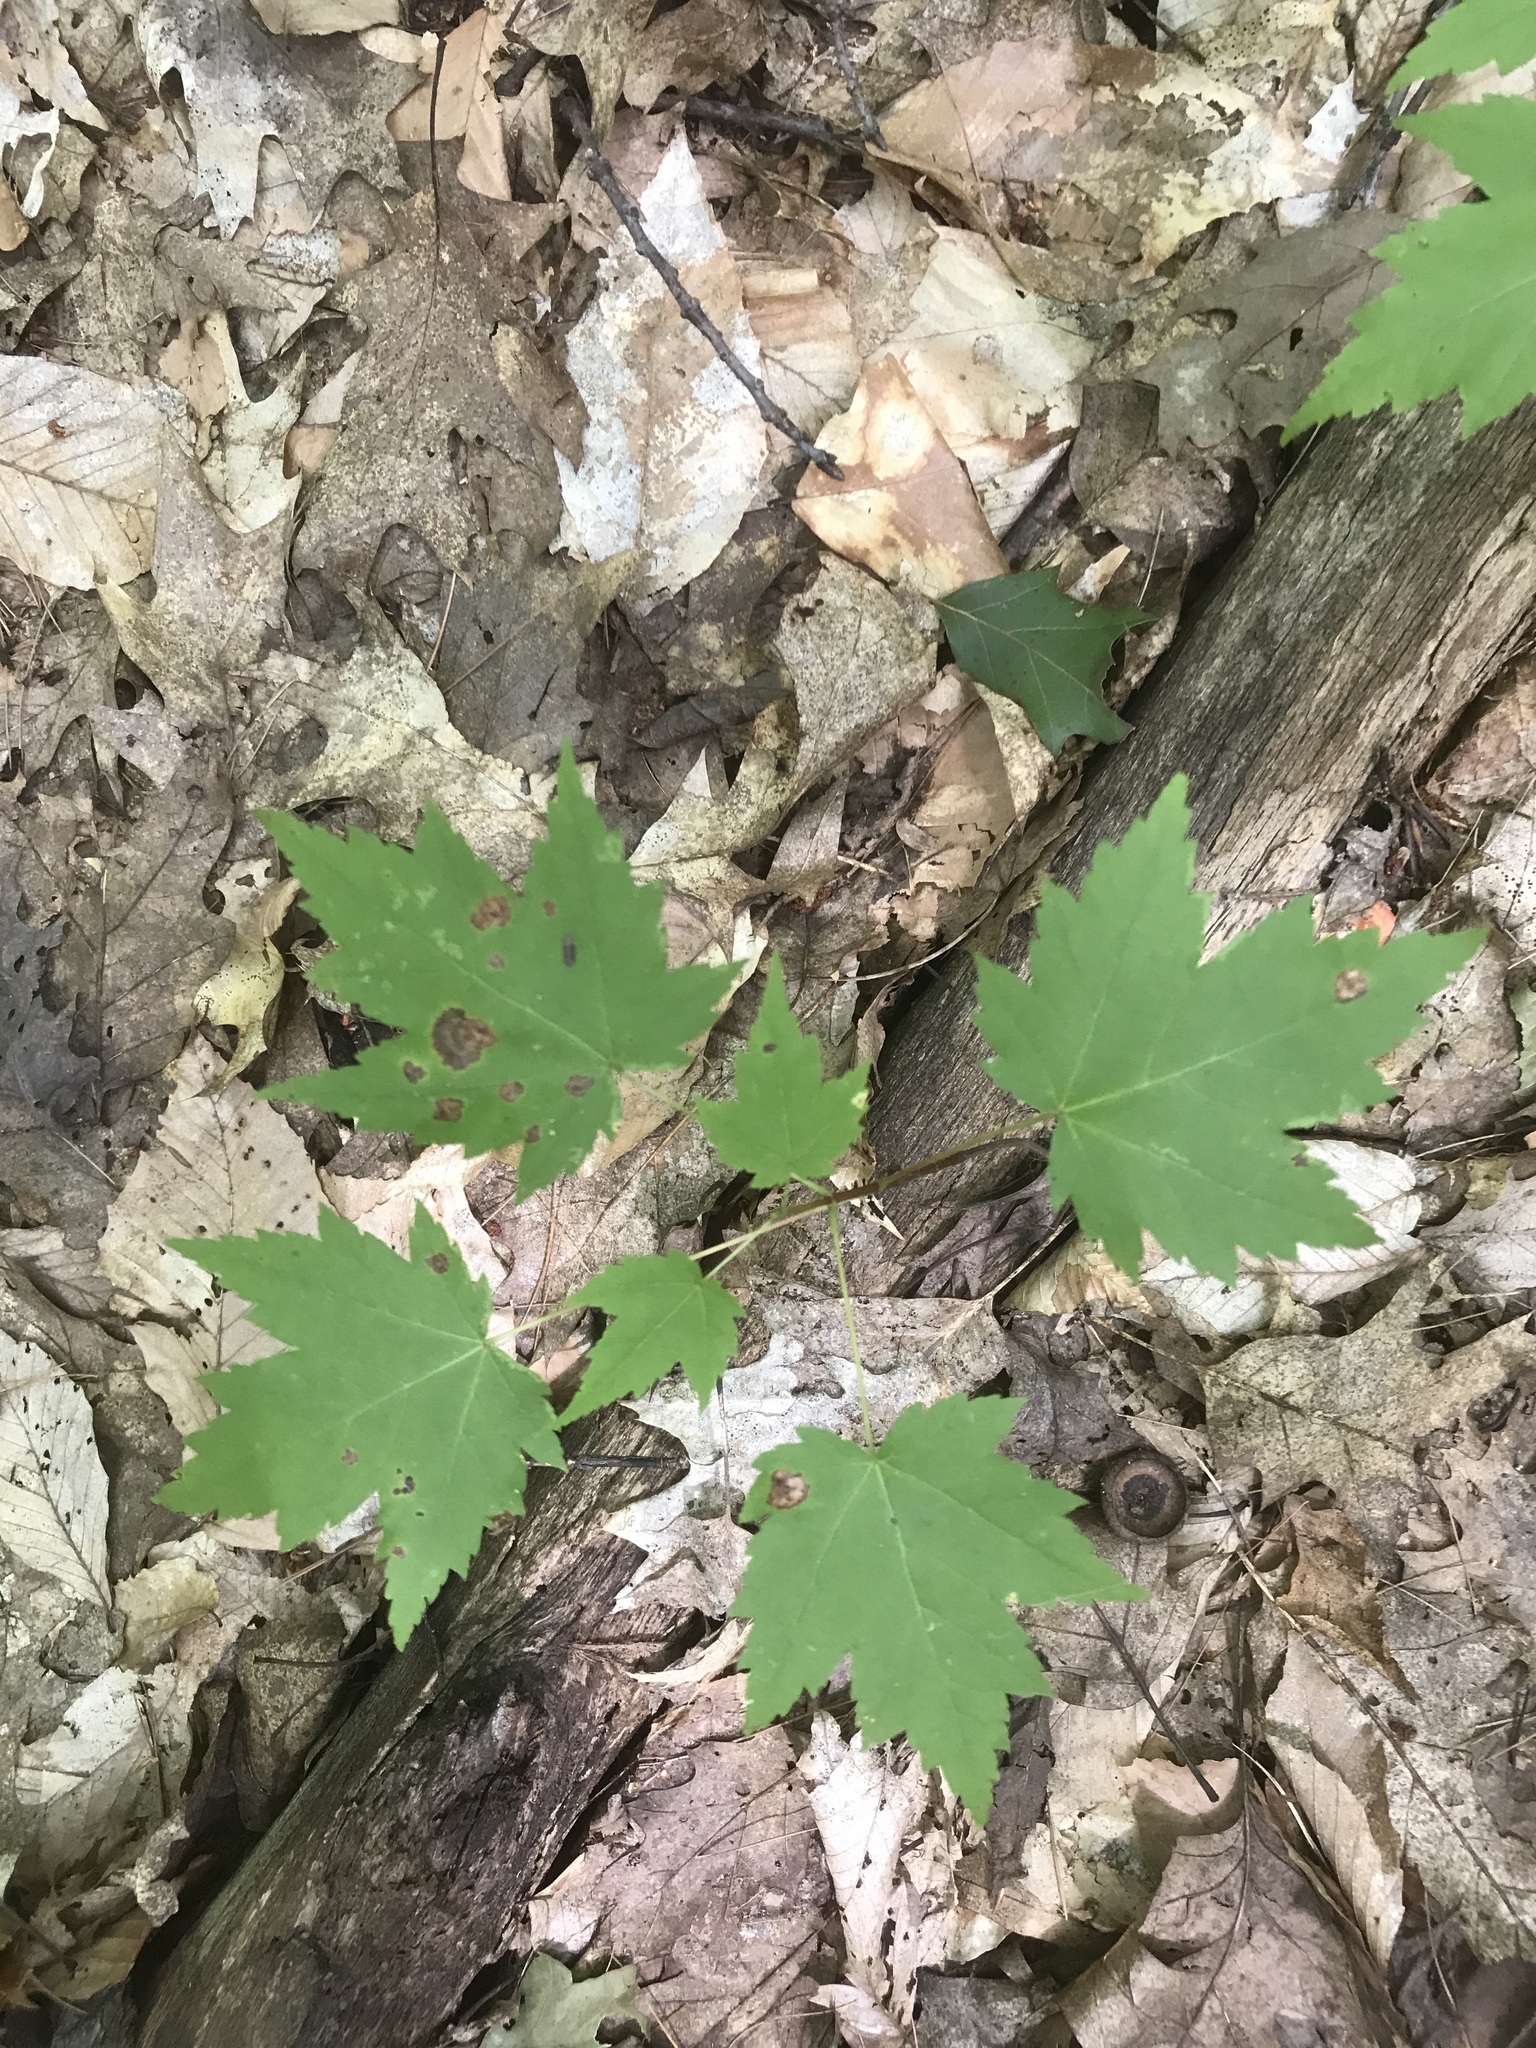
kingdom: Plantae
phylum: Tracheophyta
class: Magnoliopsida
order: Sapindales
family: Sapindaceae
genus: Acer
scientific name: Acer rubrum
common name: Red maple
